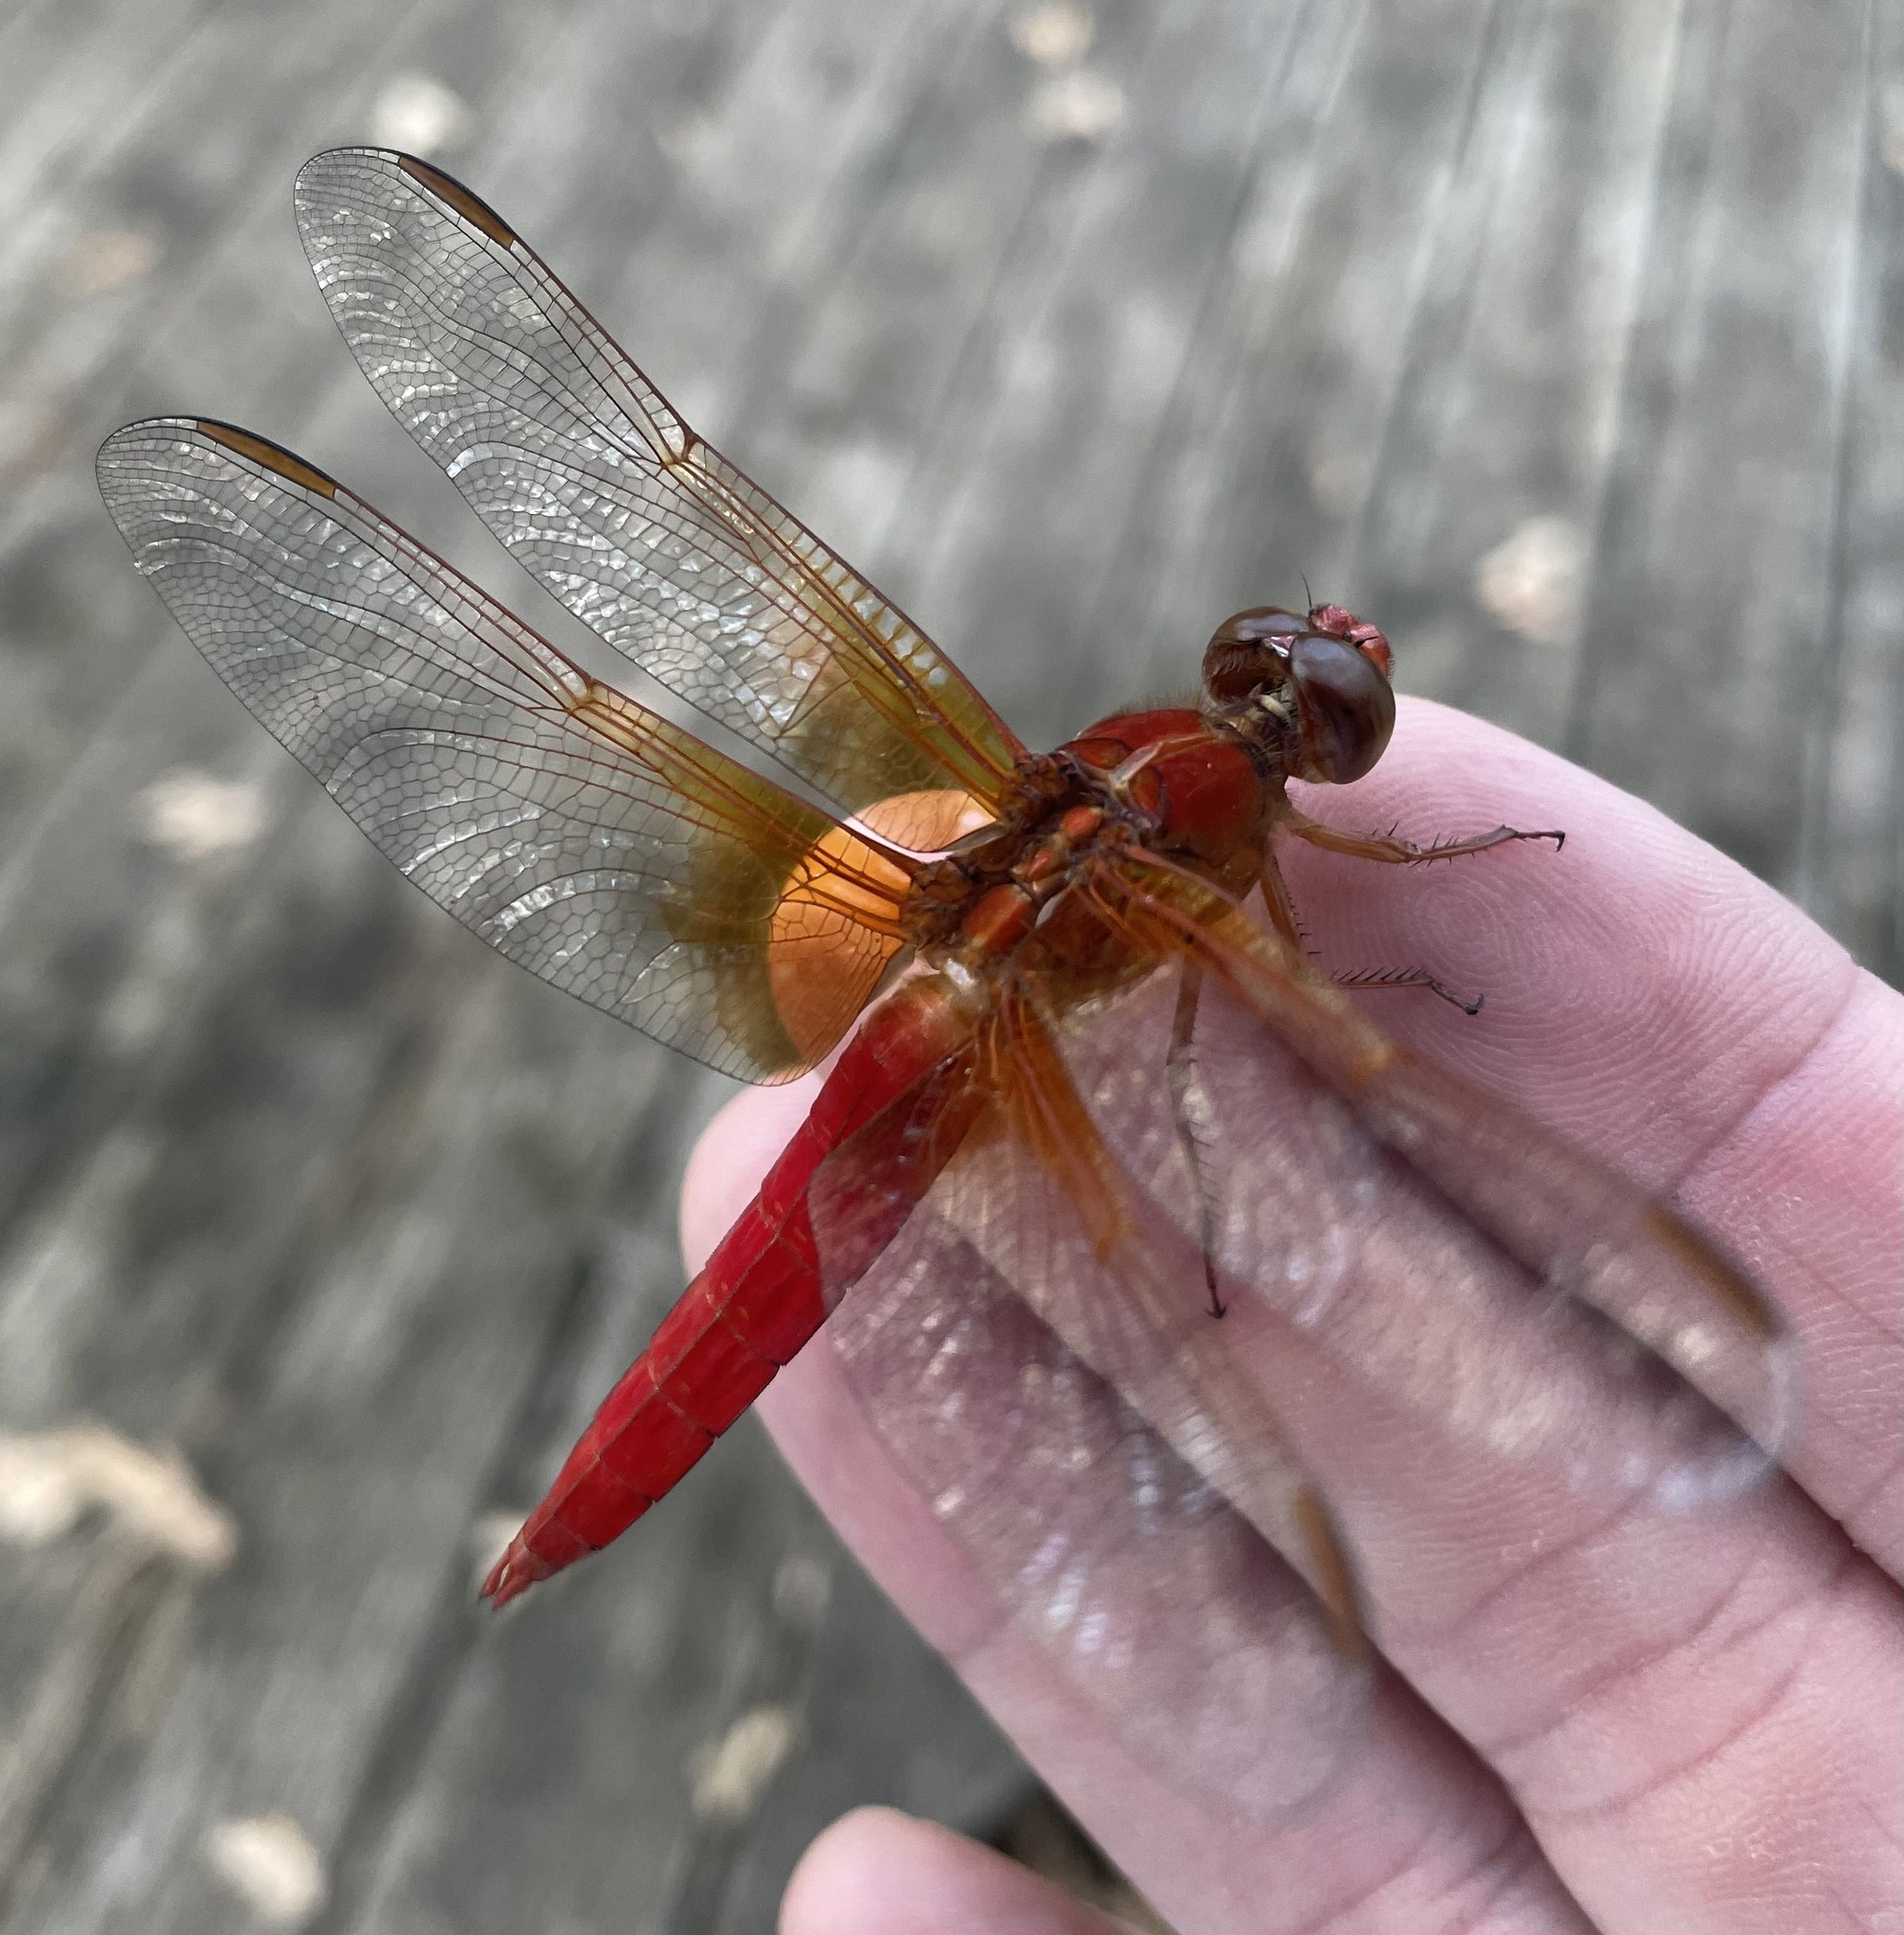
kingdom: Animalia
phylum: Arthropoda
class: Insecta
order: Odonata
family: Libellulidae
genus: Libellula
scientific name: Libellula croceipennis
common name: Neon skimmer
